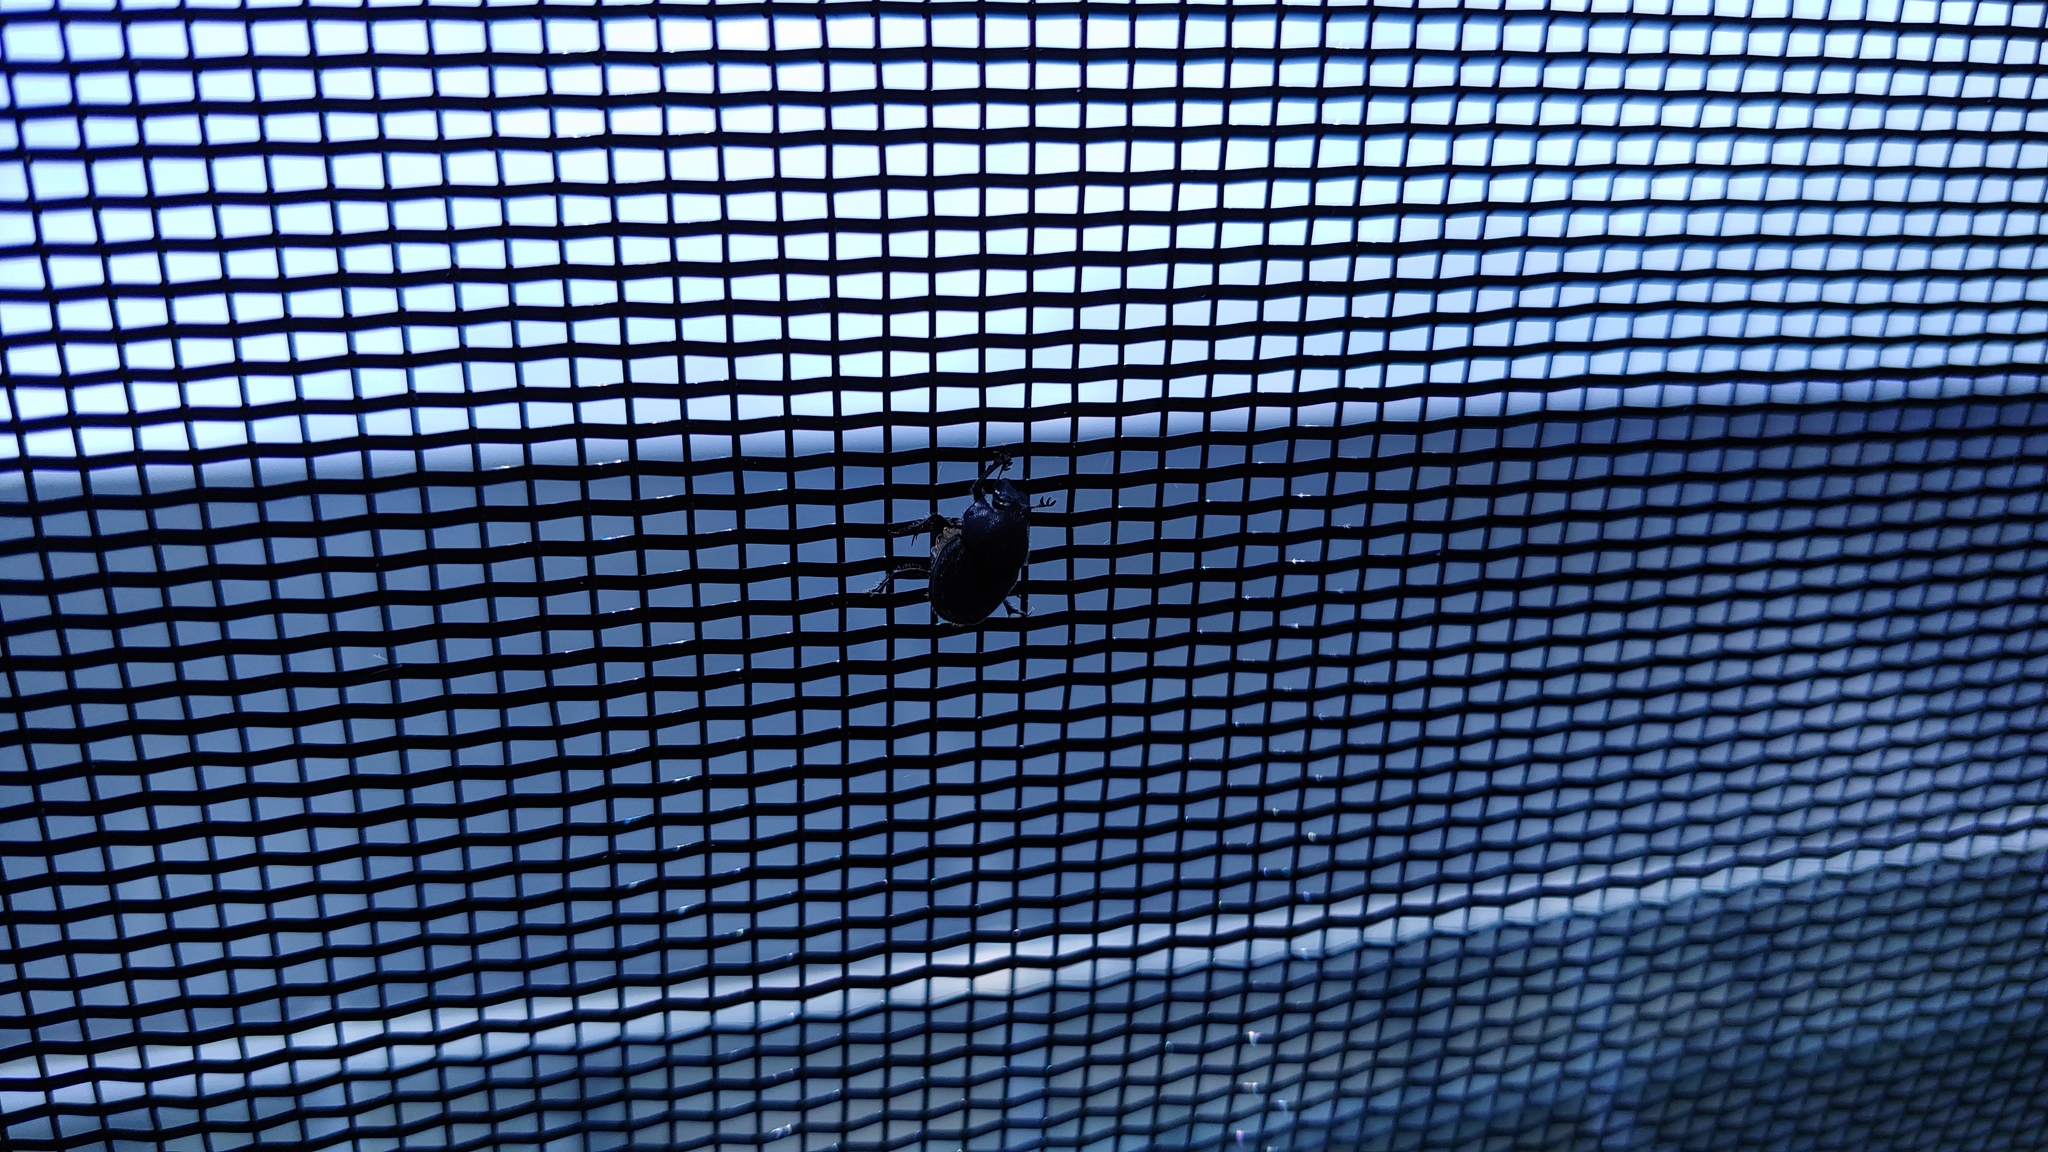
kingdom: Animalia
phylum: Arthropoda
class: Insecta
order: Coleoptera
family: Scarabaeidae
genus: Onthophagus
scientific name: Onthophagus hecate
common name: Scooped scarab
